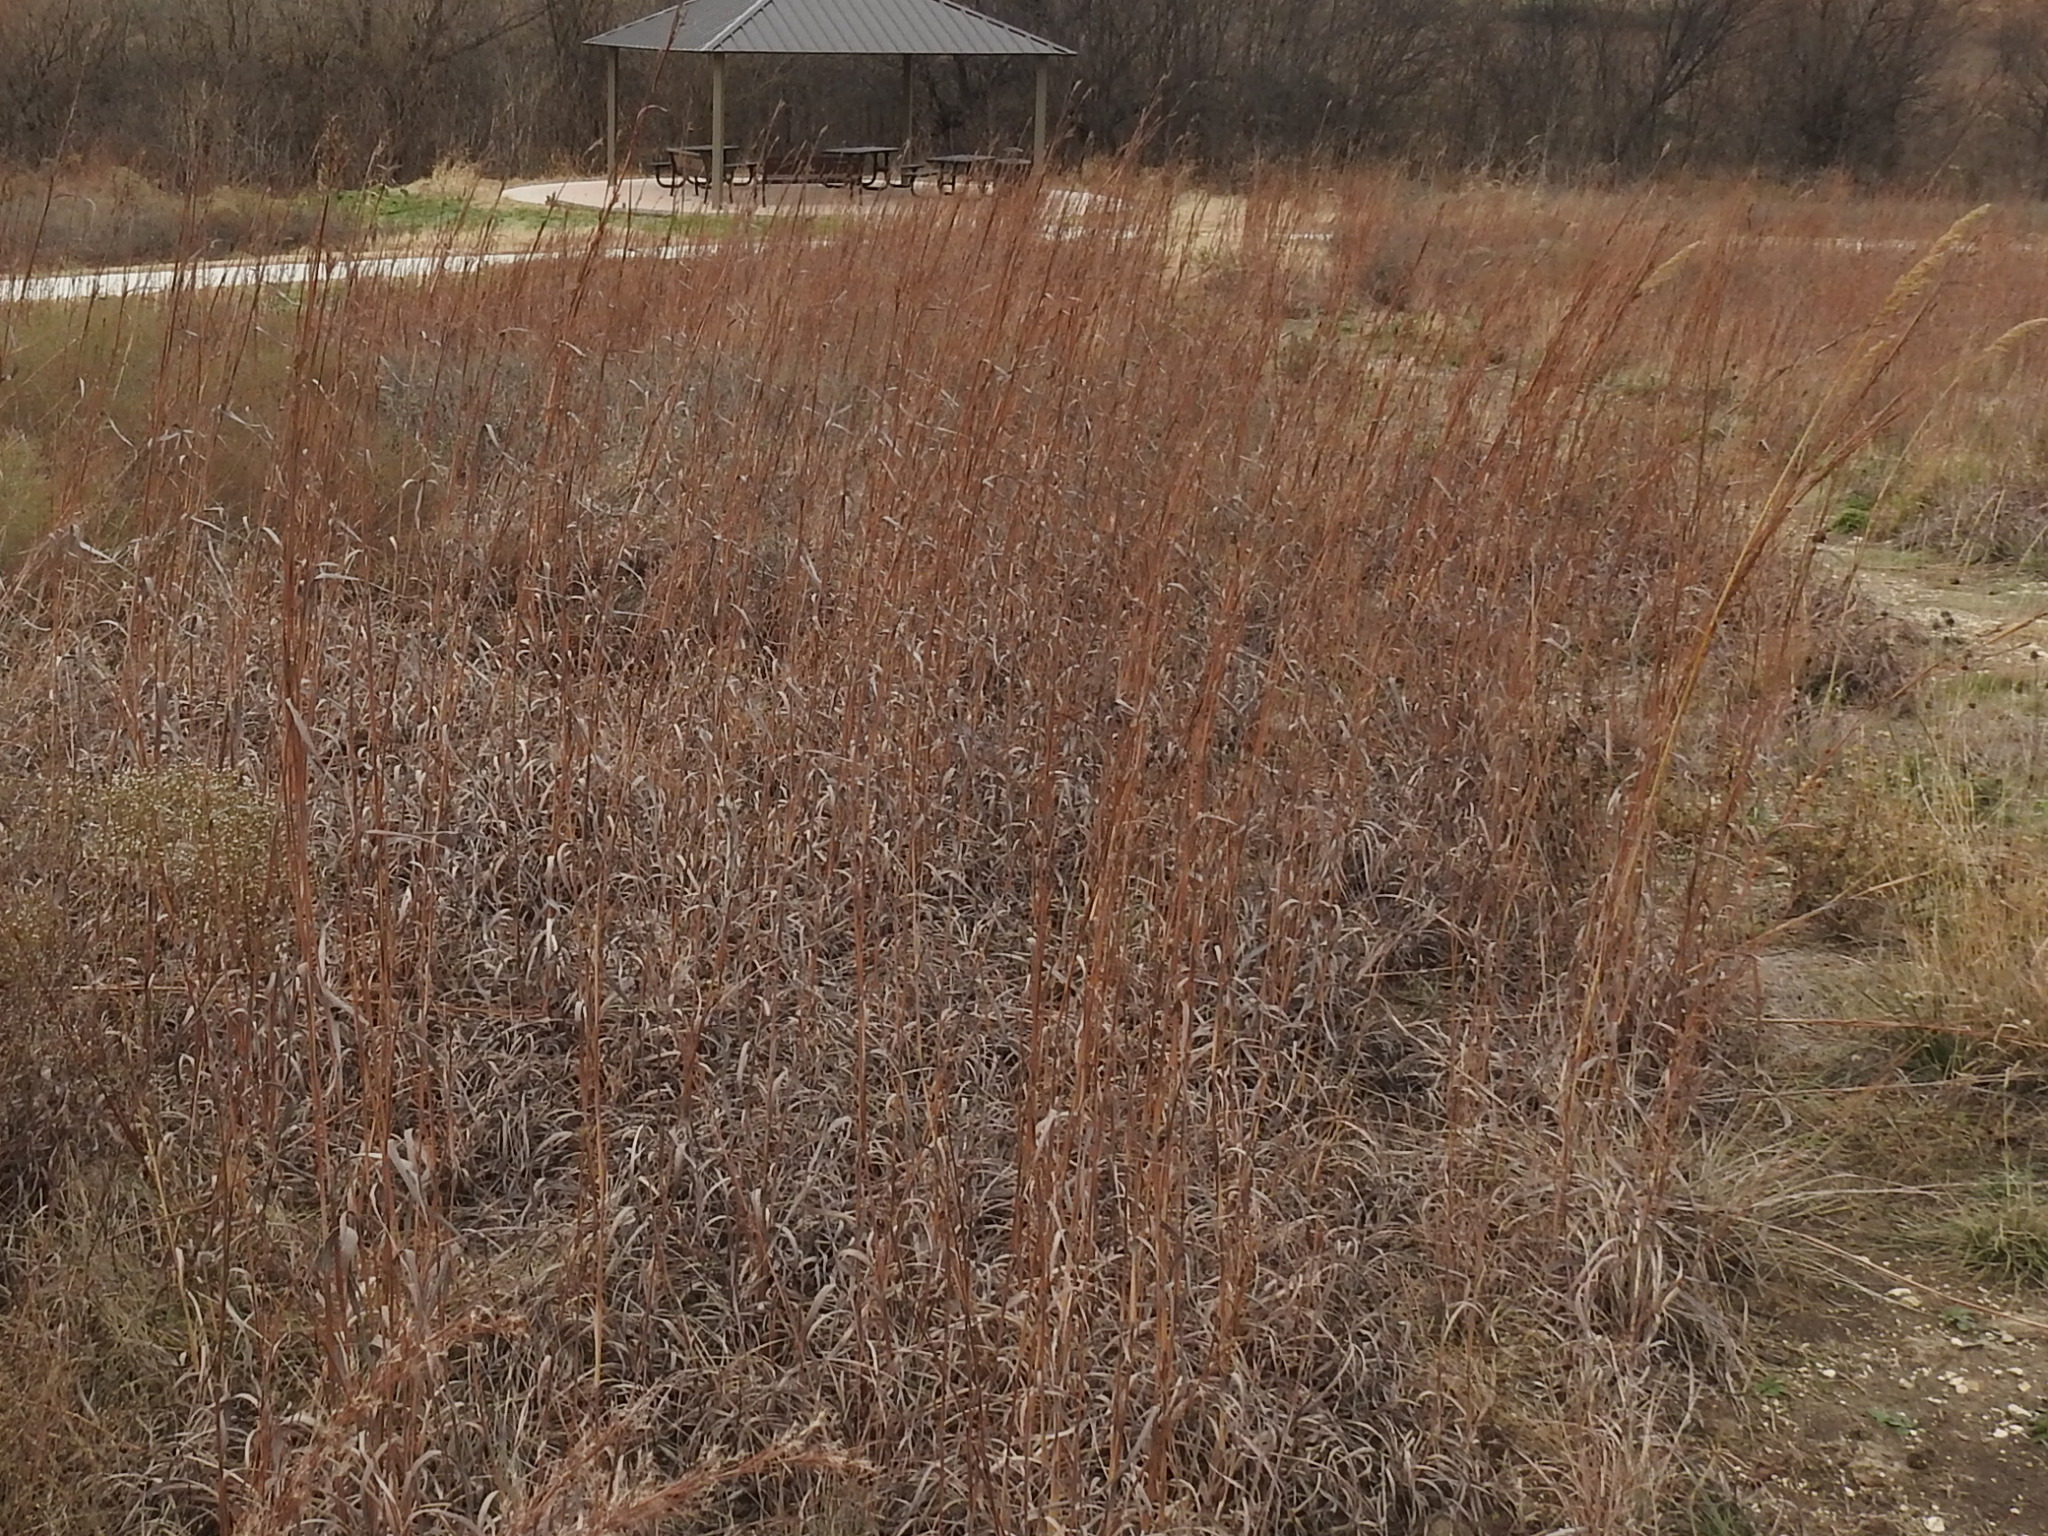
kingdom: Plantae
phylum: Tracheophyta
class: Liliopsida
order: Poales
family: Poaceae
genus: Andropogon
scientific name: Andropogon gerardi
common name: Big bluestem
